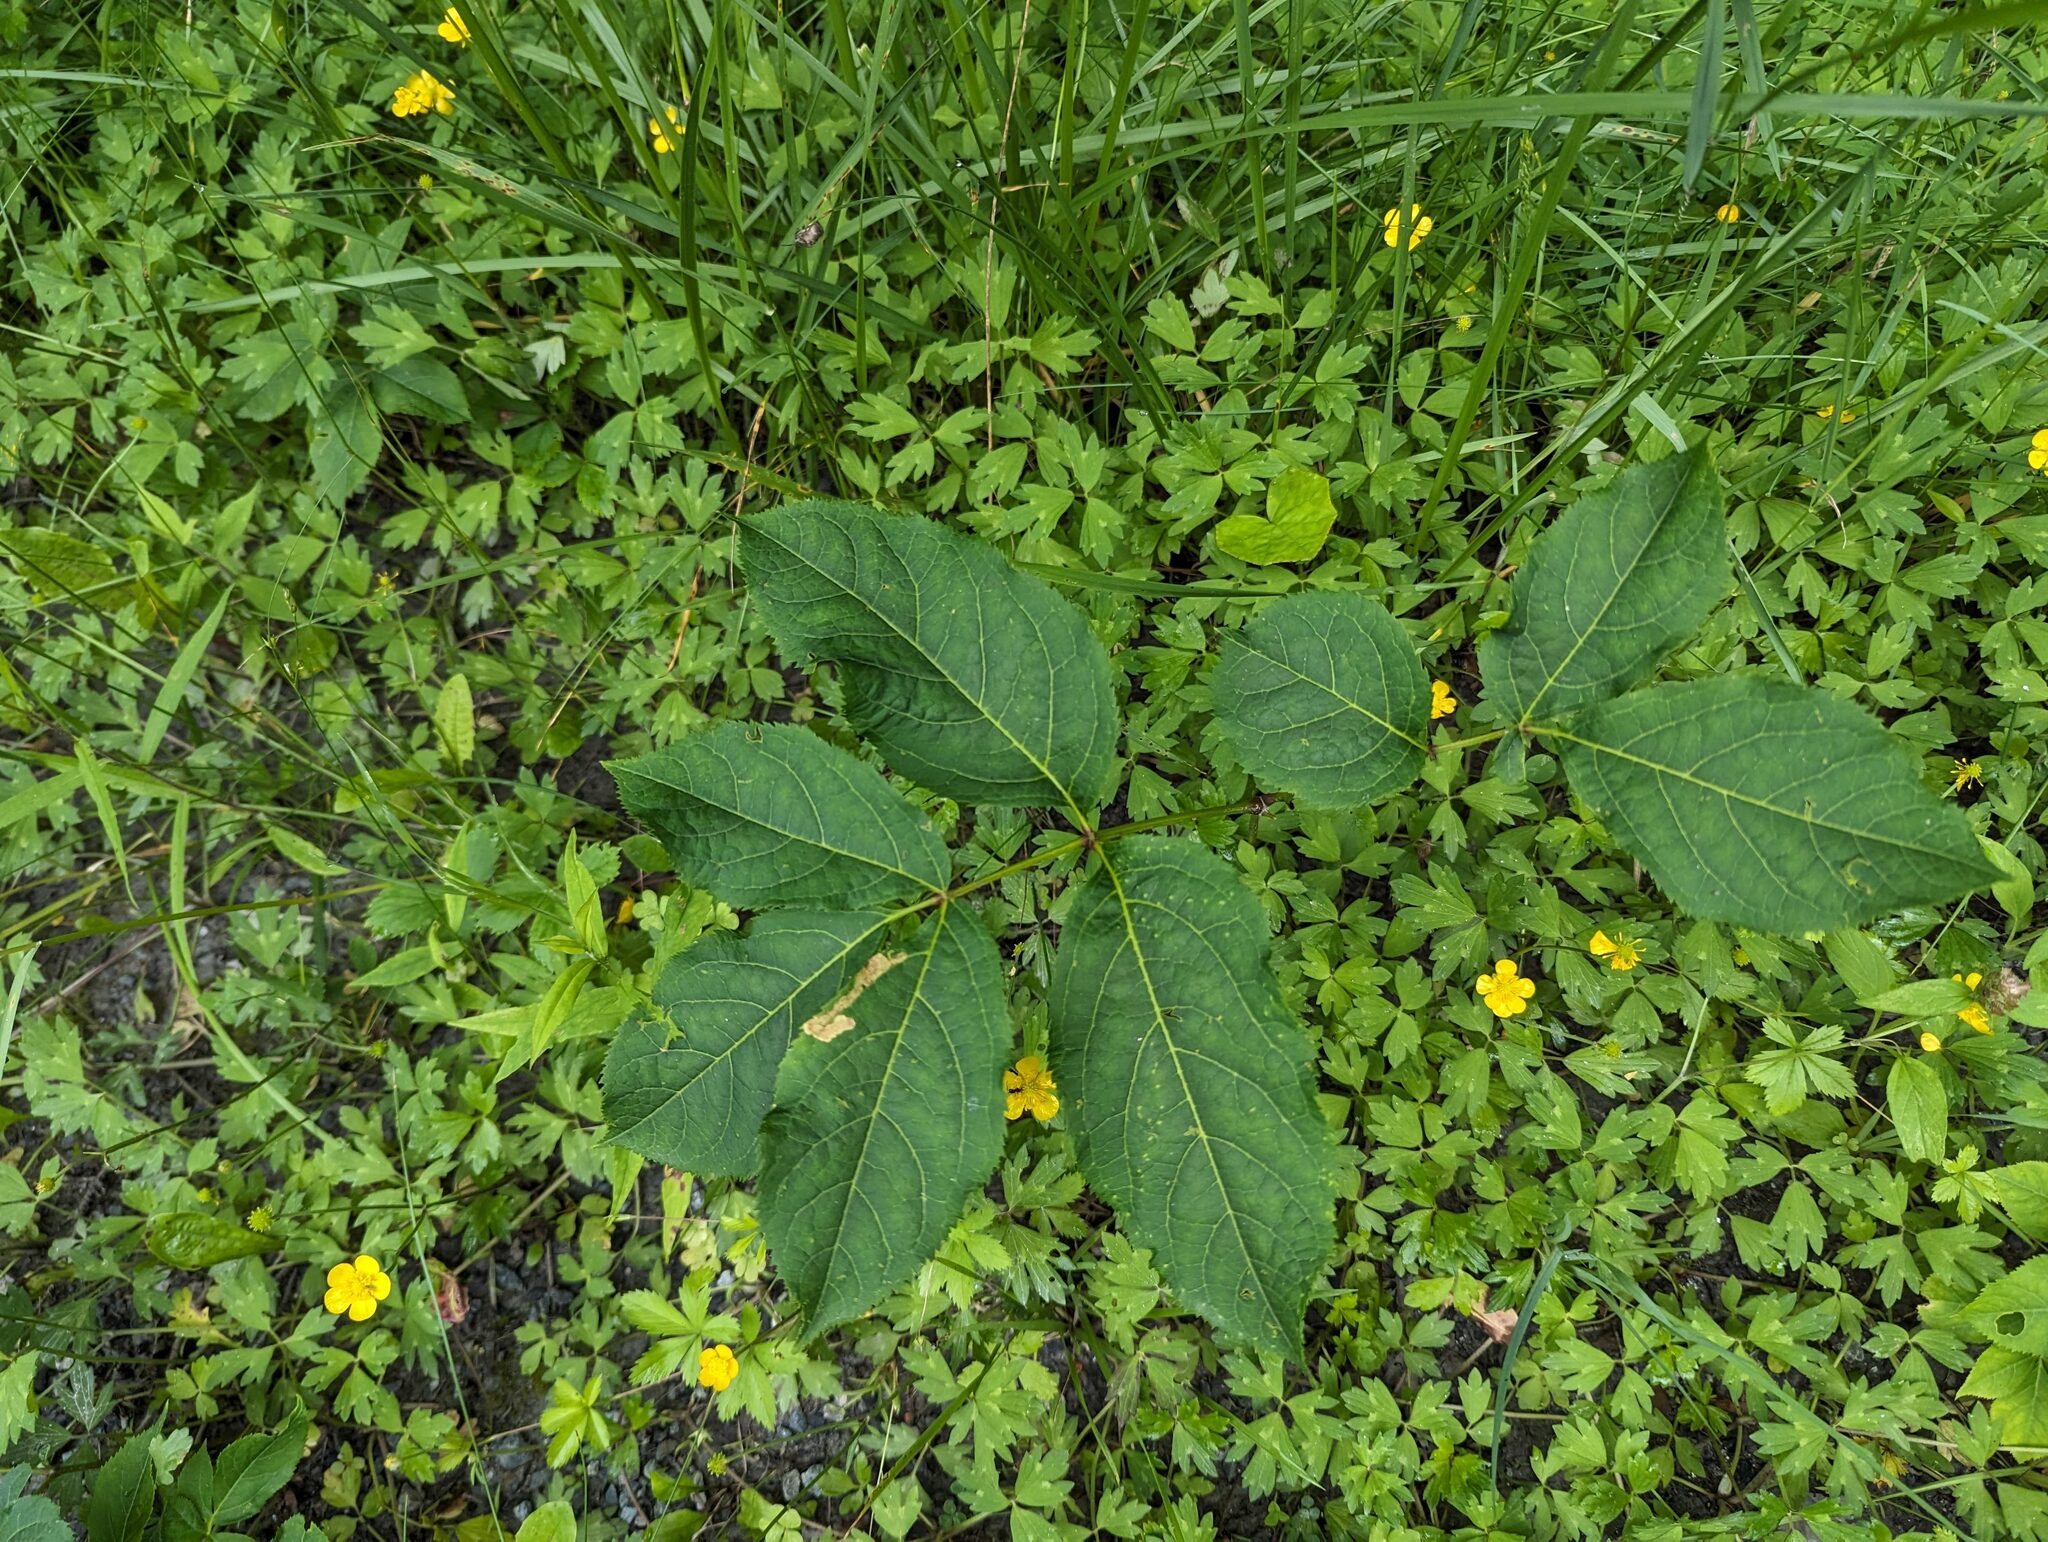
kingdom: Plantae
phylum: Tracheophyta
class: Magnoliopsida
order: Apiales
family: Araliaceae
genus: Aralia
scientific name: Aralia nudicaulis
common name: Wild sarsaparilla
